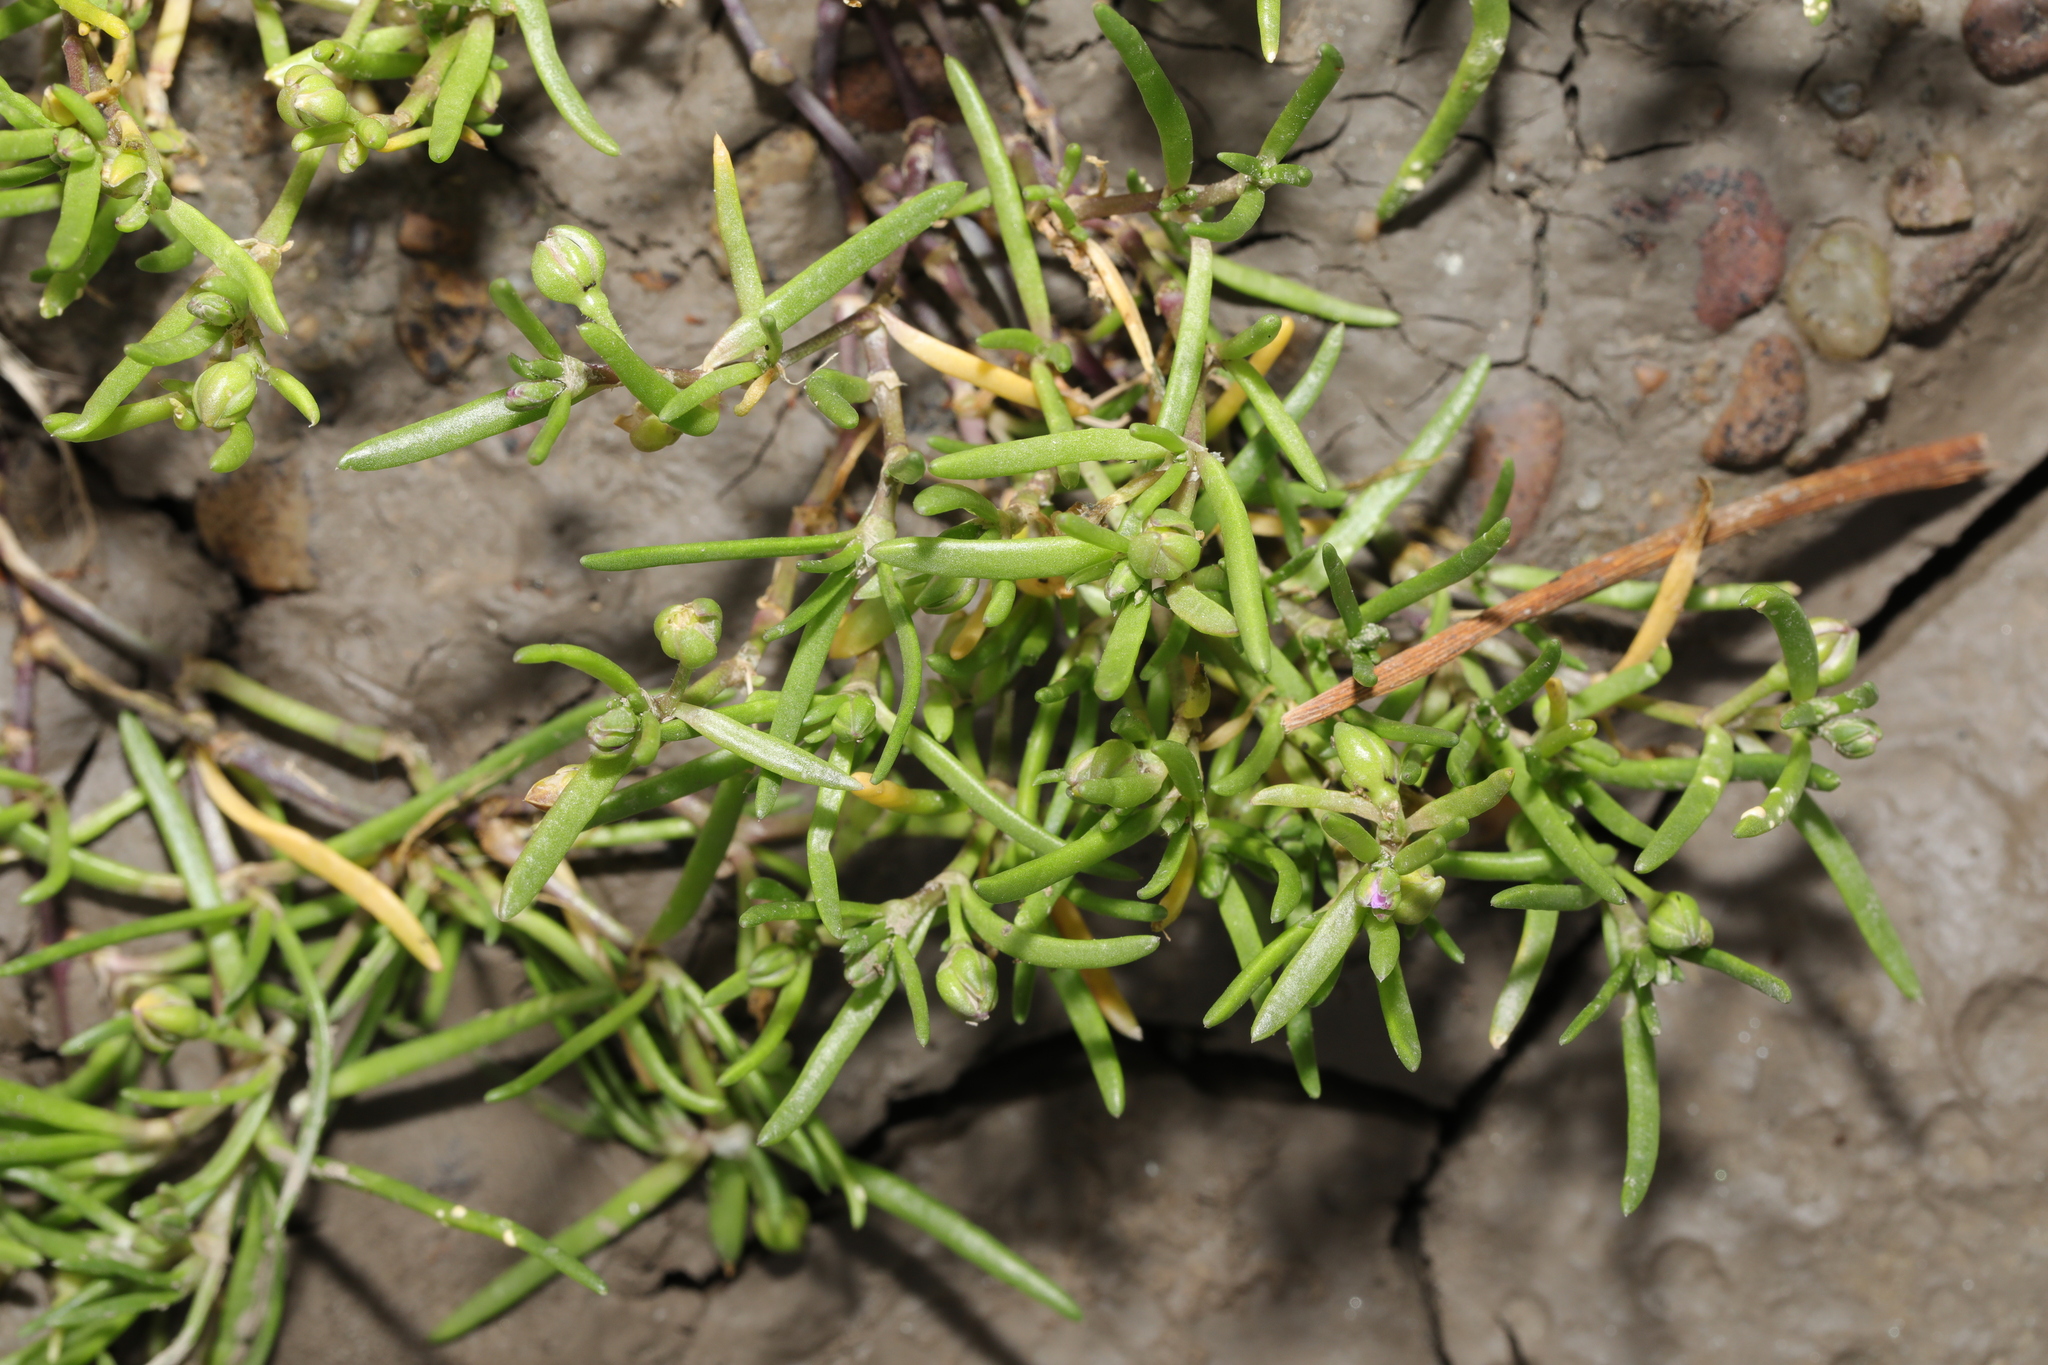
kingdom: Plantae
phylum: Tracheophyta
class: Magnoliopsida
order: Caryophyllales
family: Caryophyllaceae
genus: Spergularia
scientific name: Spergularia marina
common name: Lesser sea-spurrey
